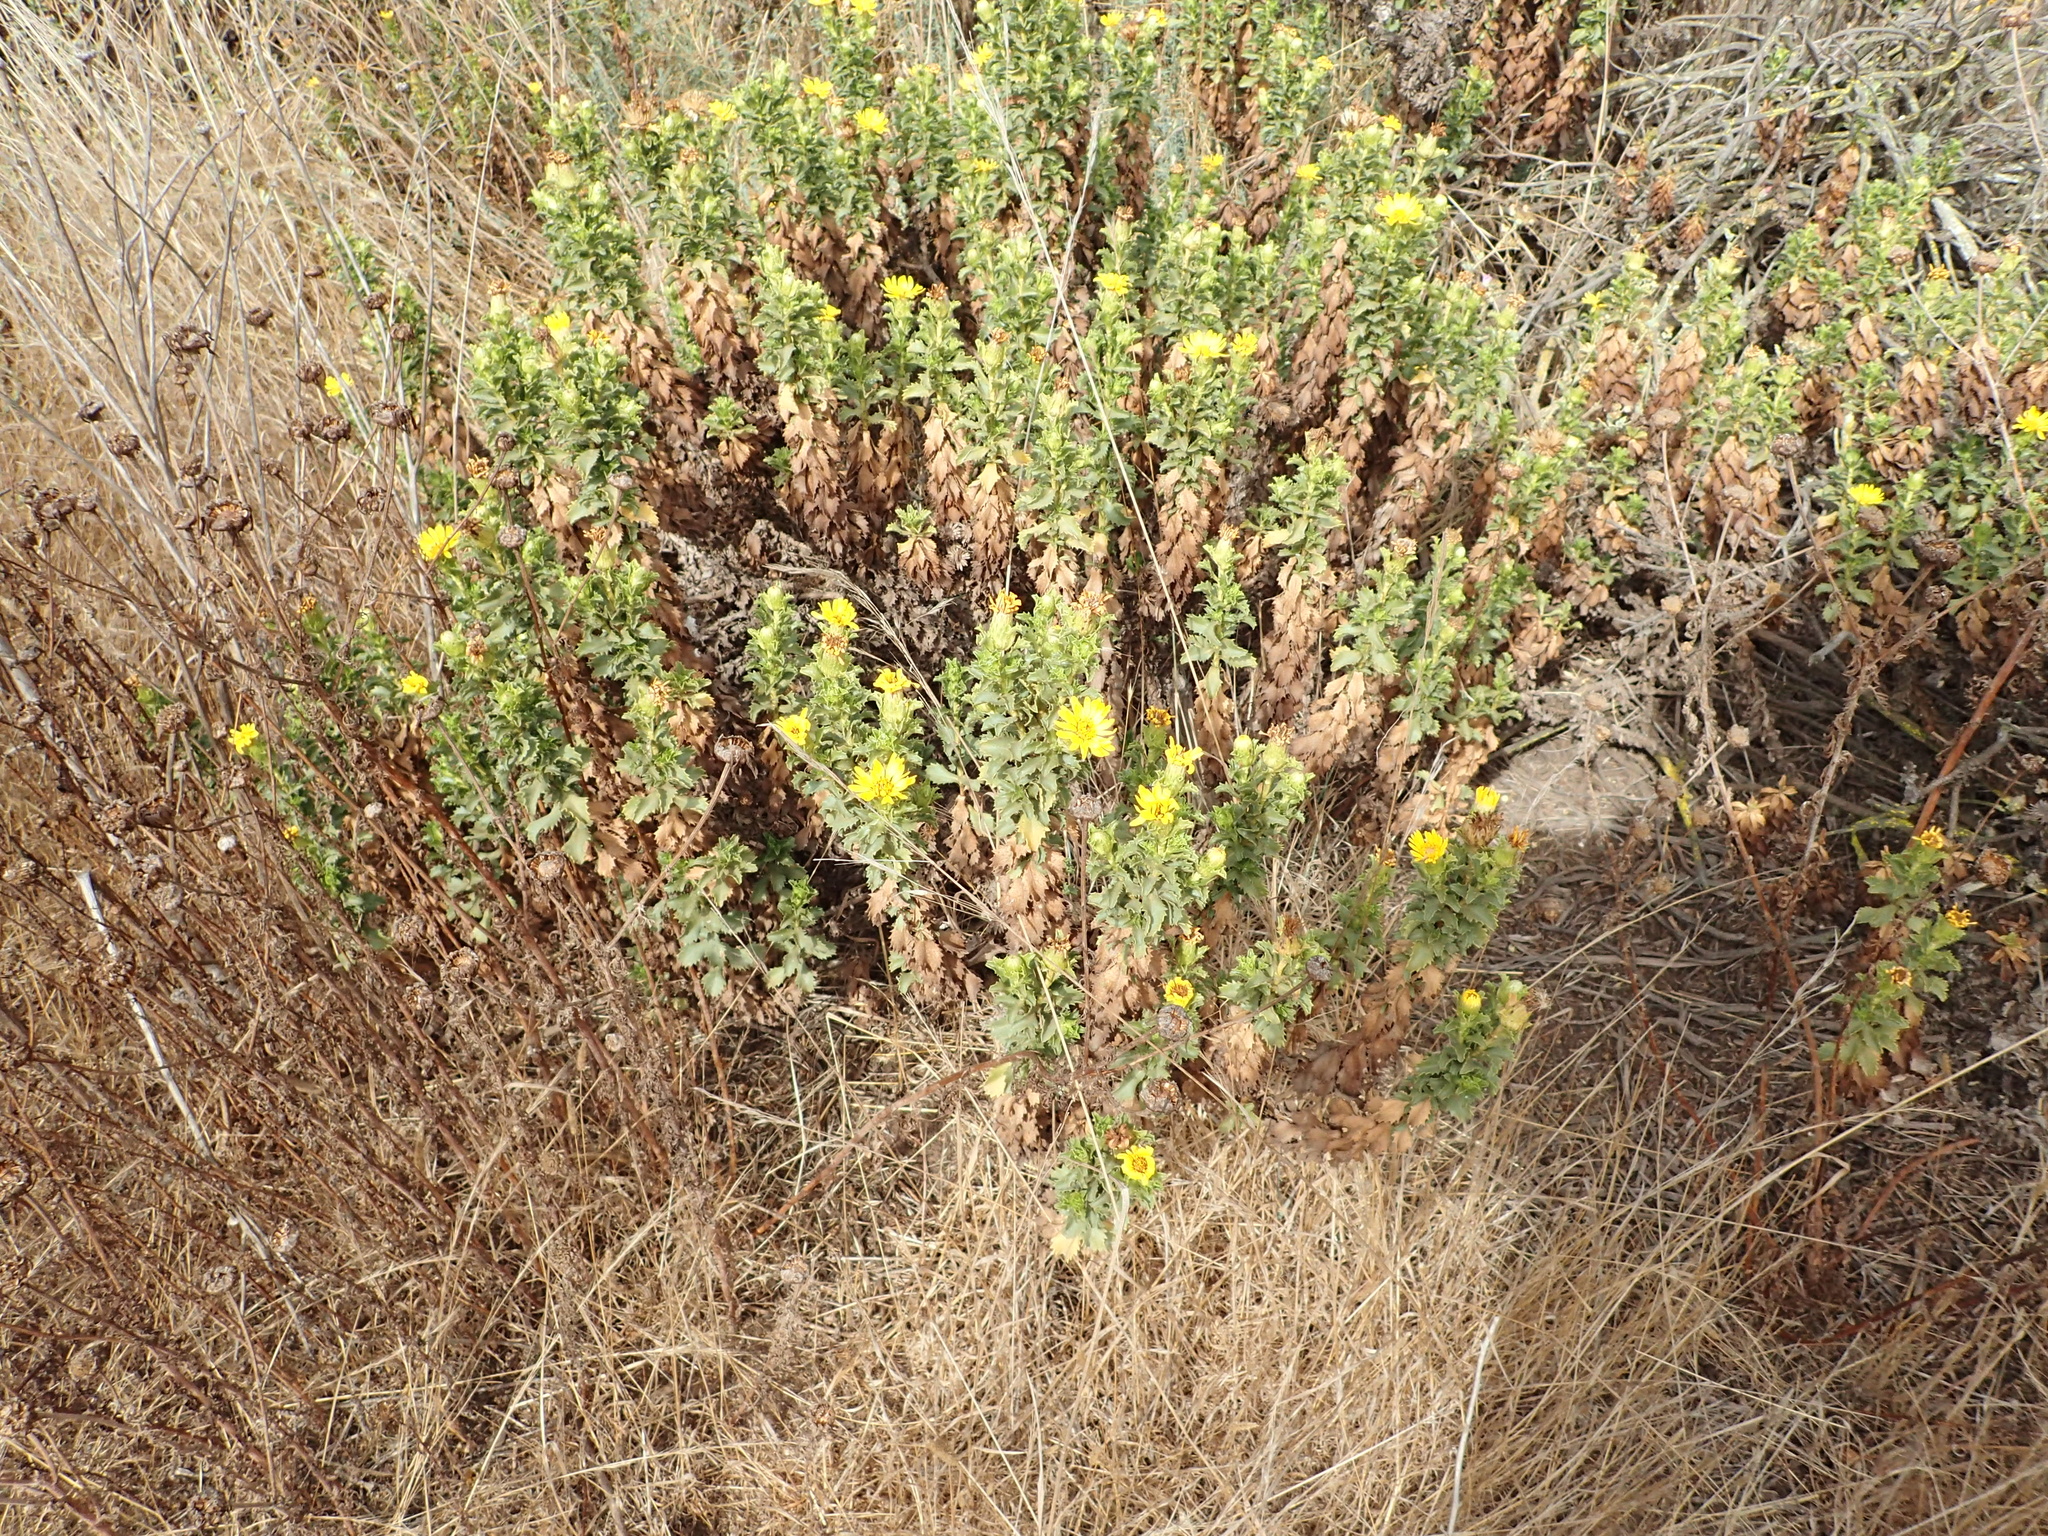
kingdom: Plantae
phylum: Tracheophyta
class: Magnoliopsida
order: Asterales
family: Asteraceae
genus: Haplopappus
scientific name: Haplopappus foliosus
